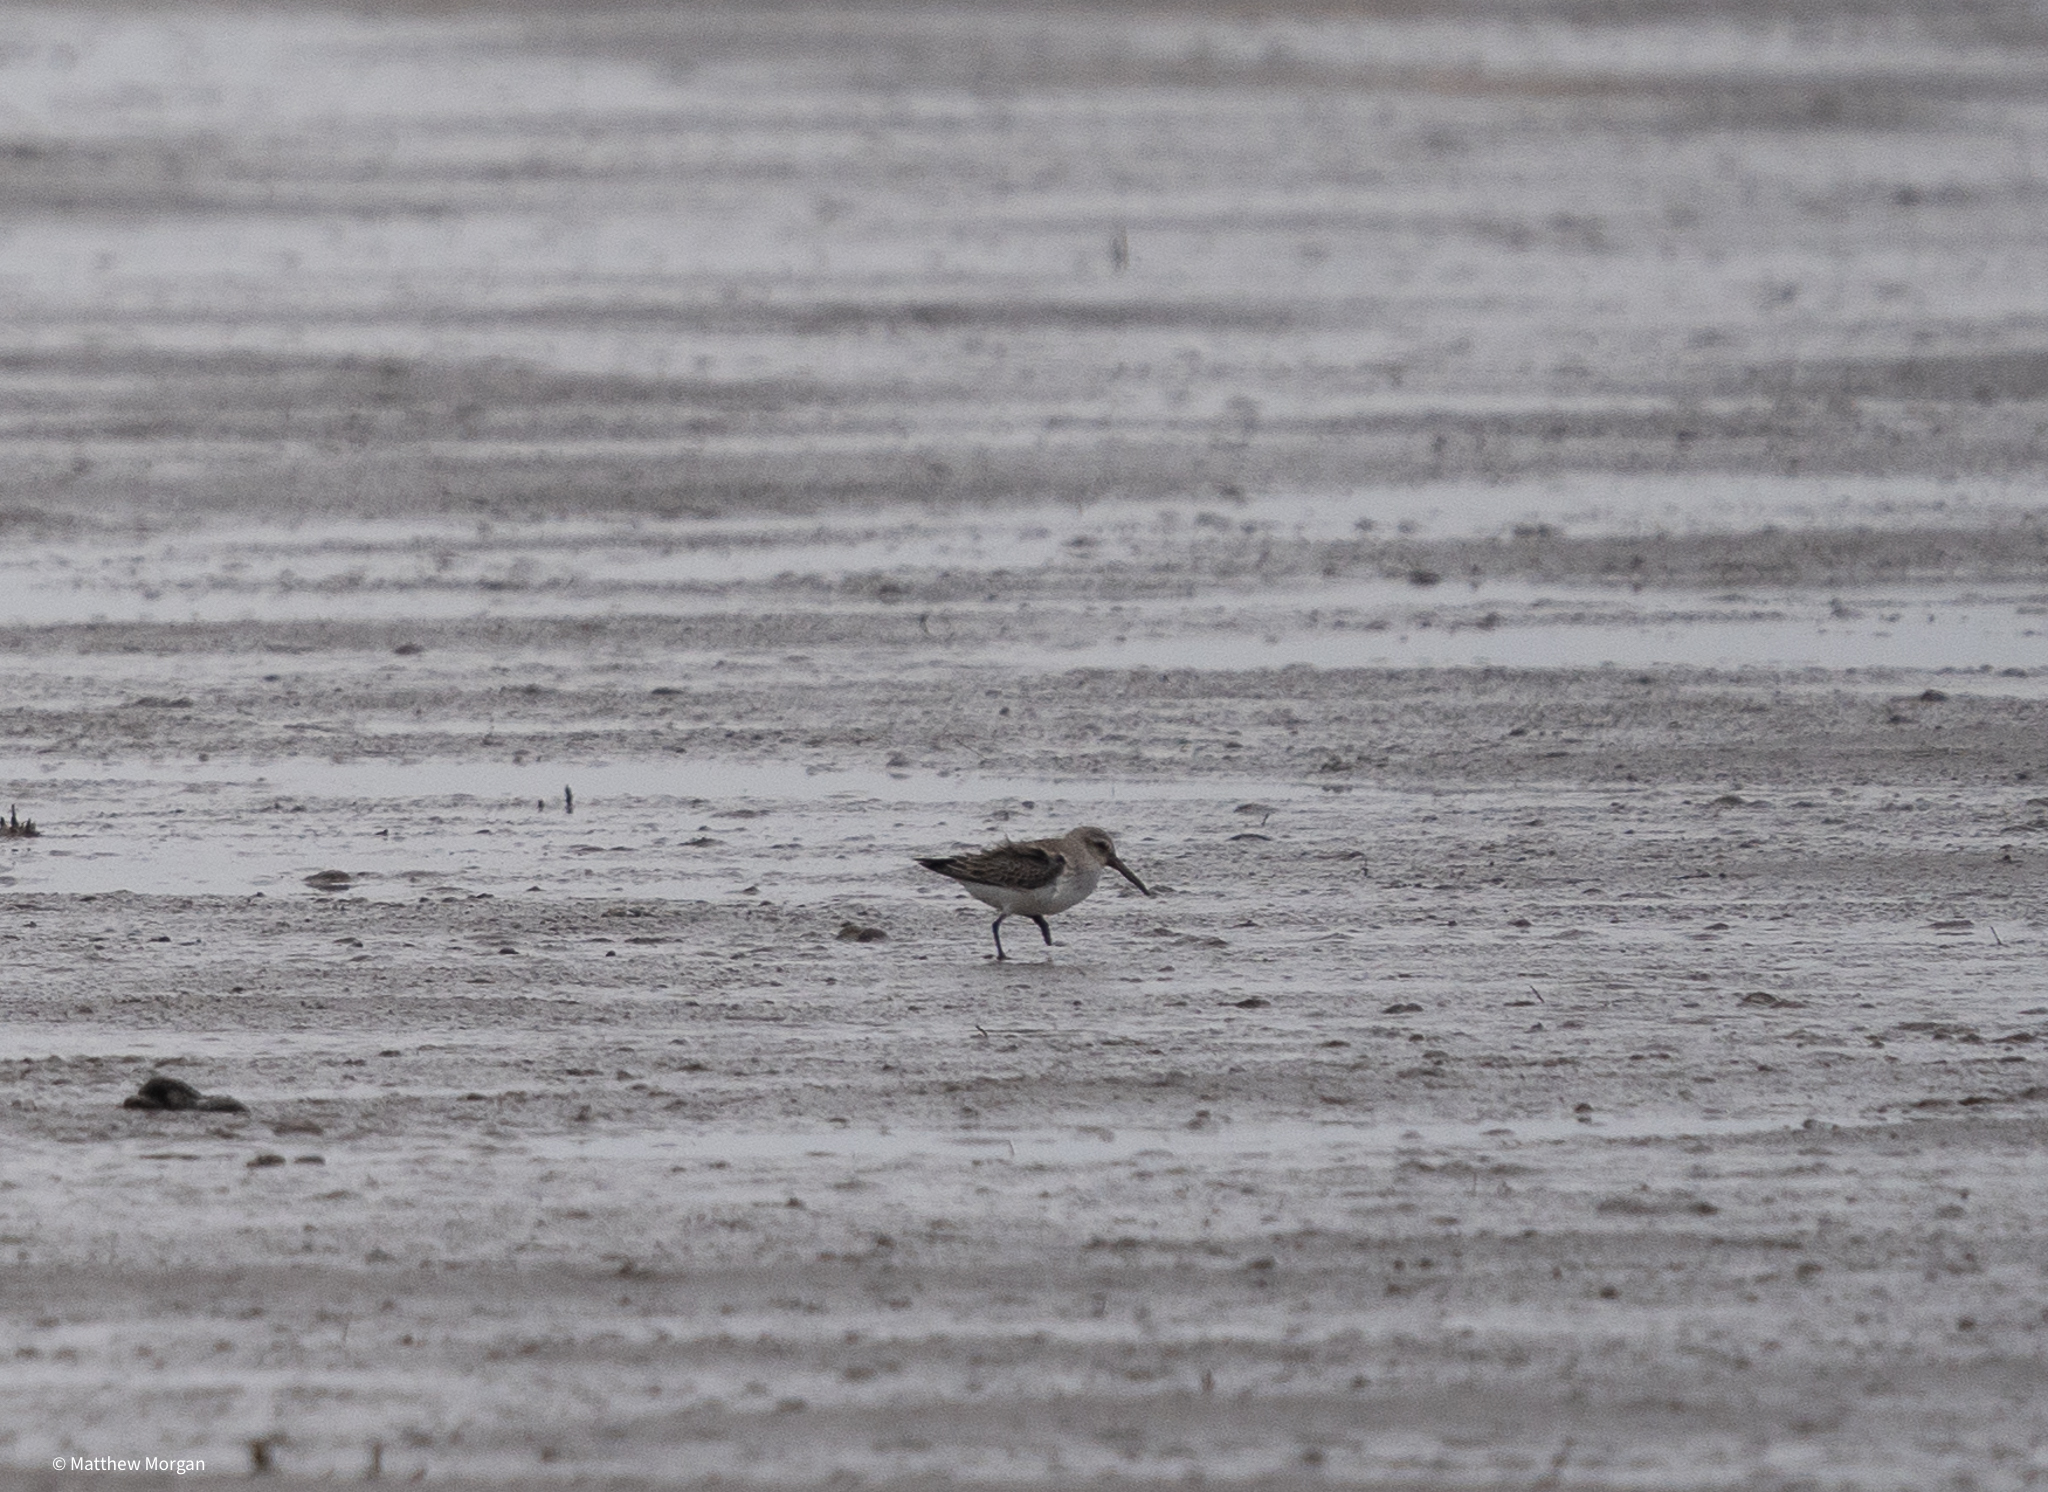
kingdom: Animalia
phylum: Chordata
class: Aves
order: Charadriiformes
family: Scolopacidae
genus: Calidris
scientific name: Calidris alpina
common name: Dunlin
